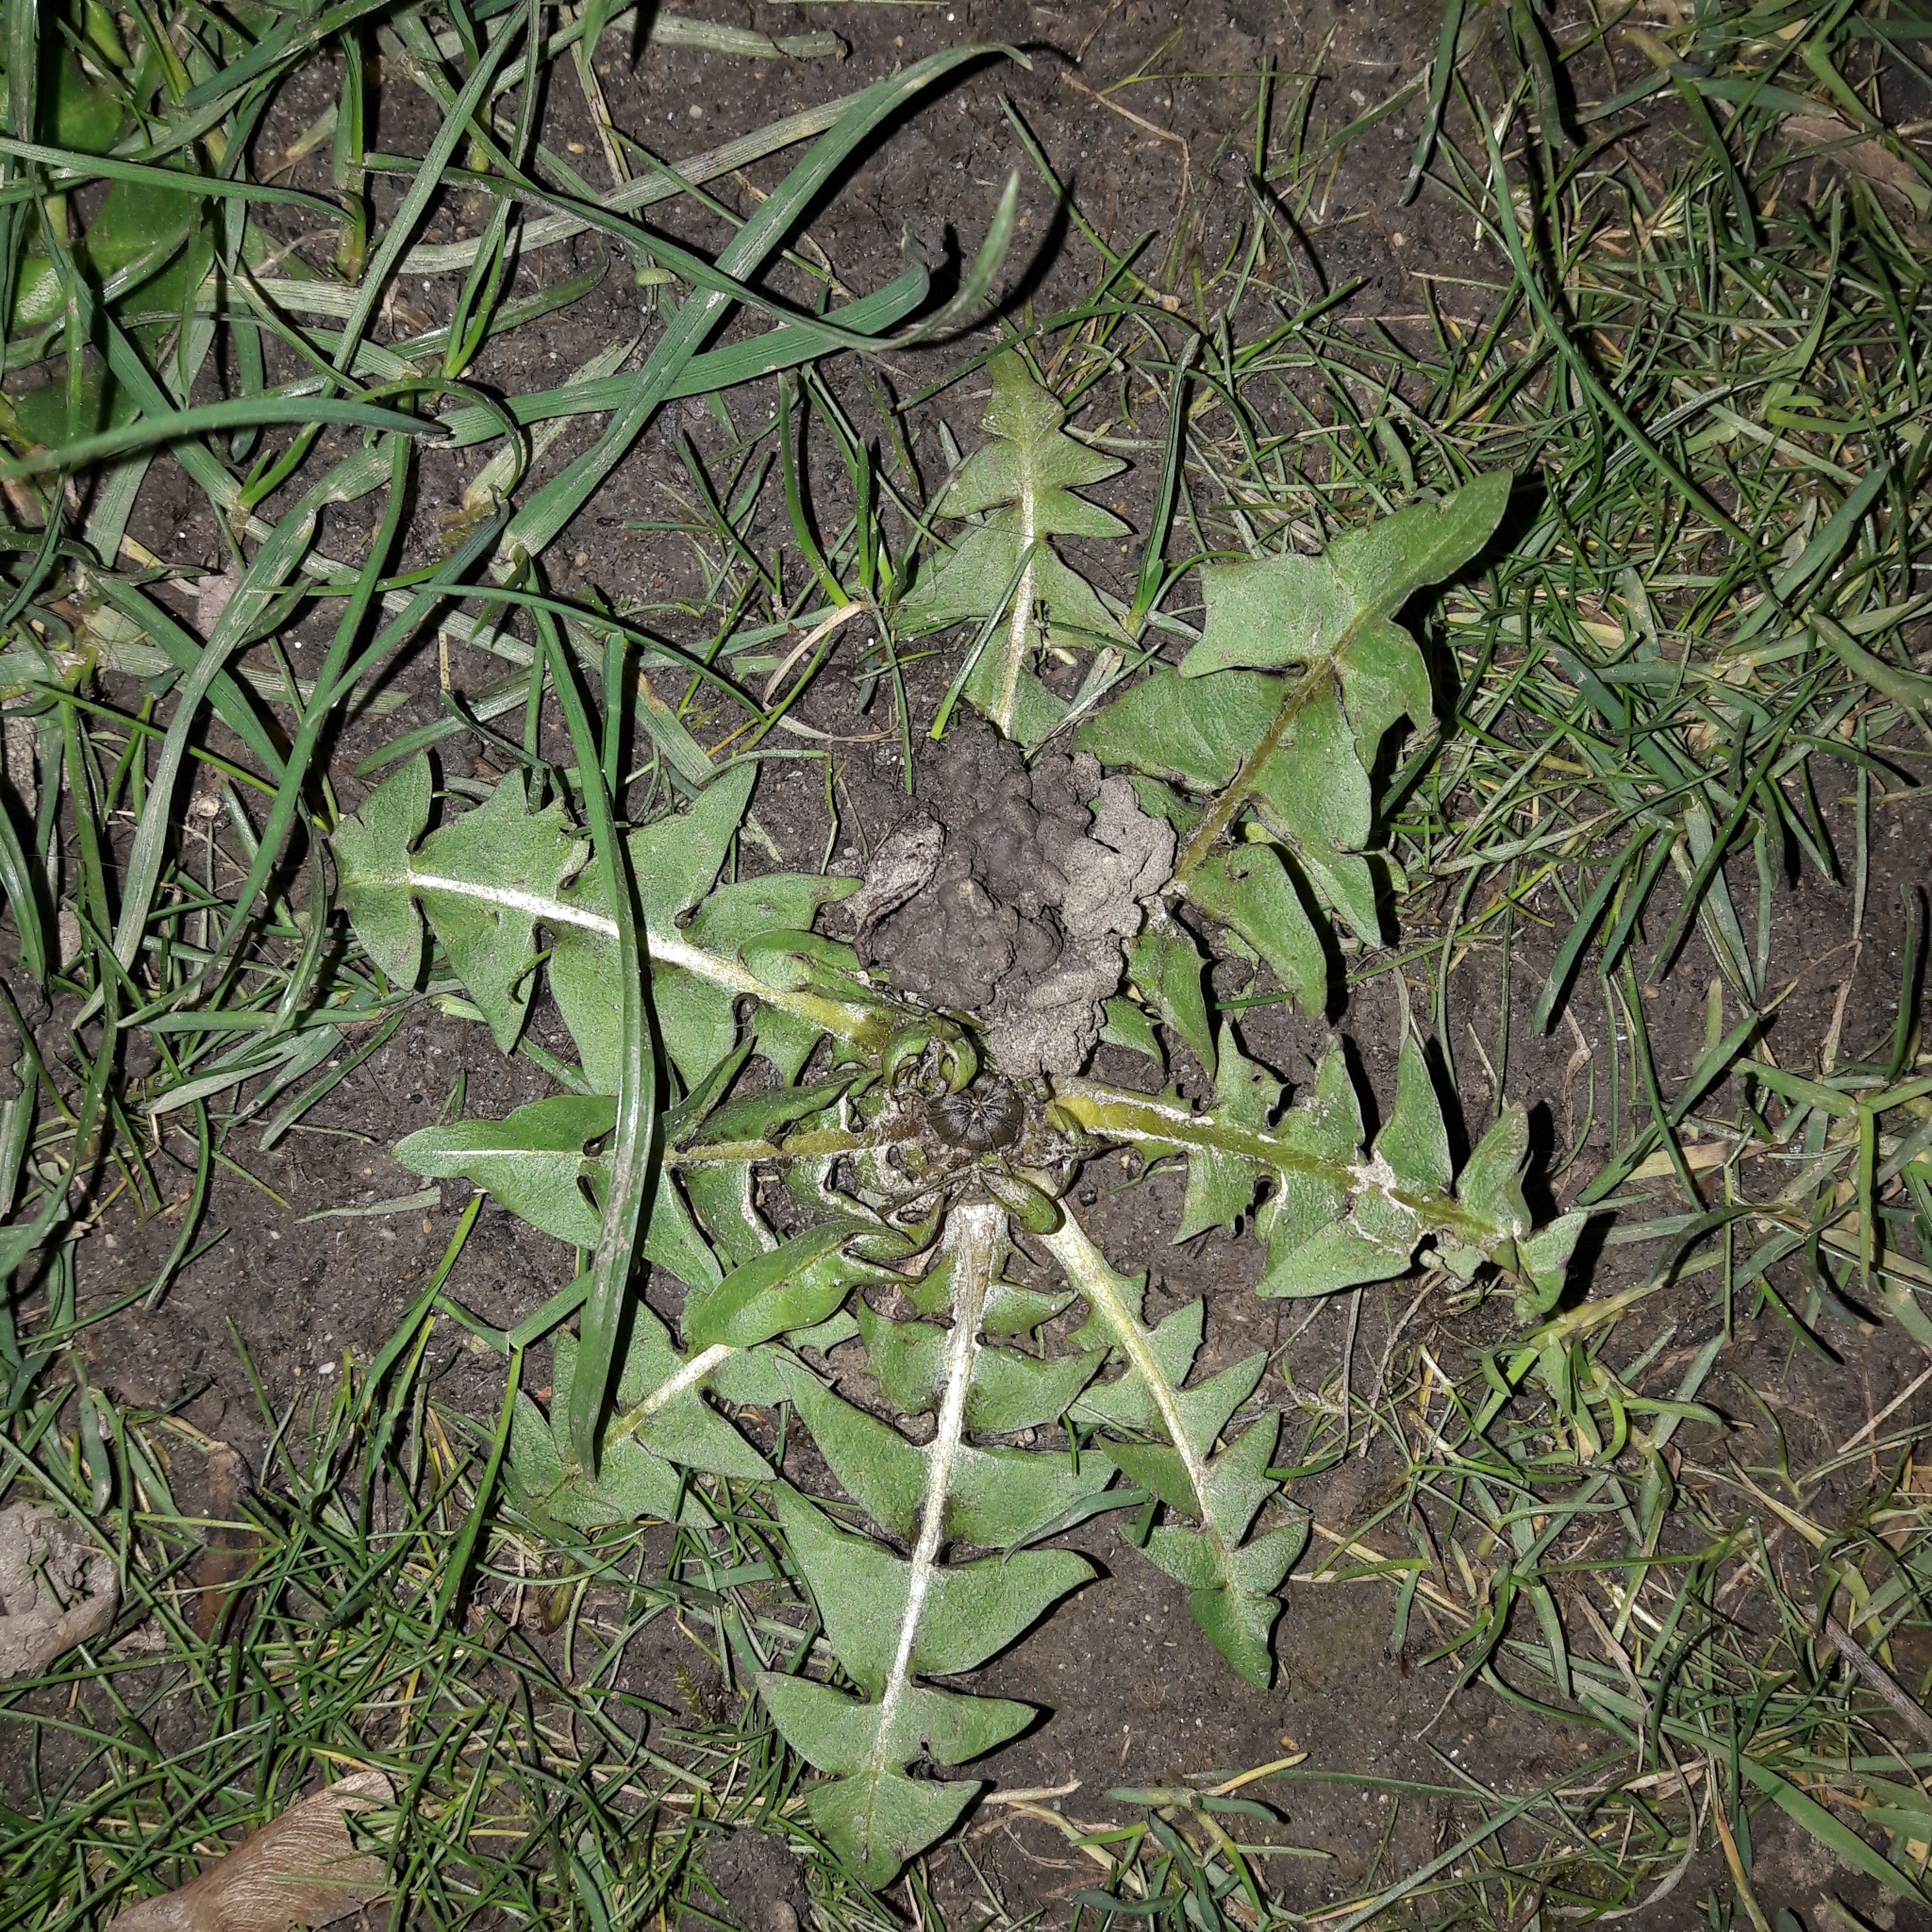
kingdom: Plantae
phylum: Tracheophyta
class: Magnoliopsida
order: Asterales
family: Asteraceae
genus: Taraxacum
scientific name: Taraxacum officinale
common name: Common dandelion
